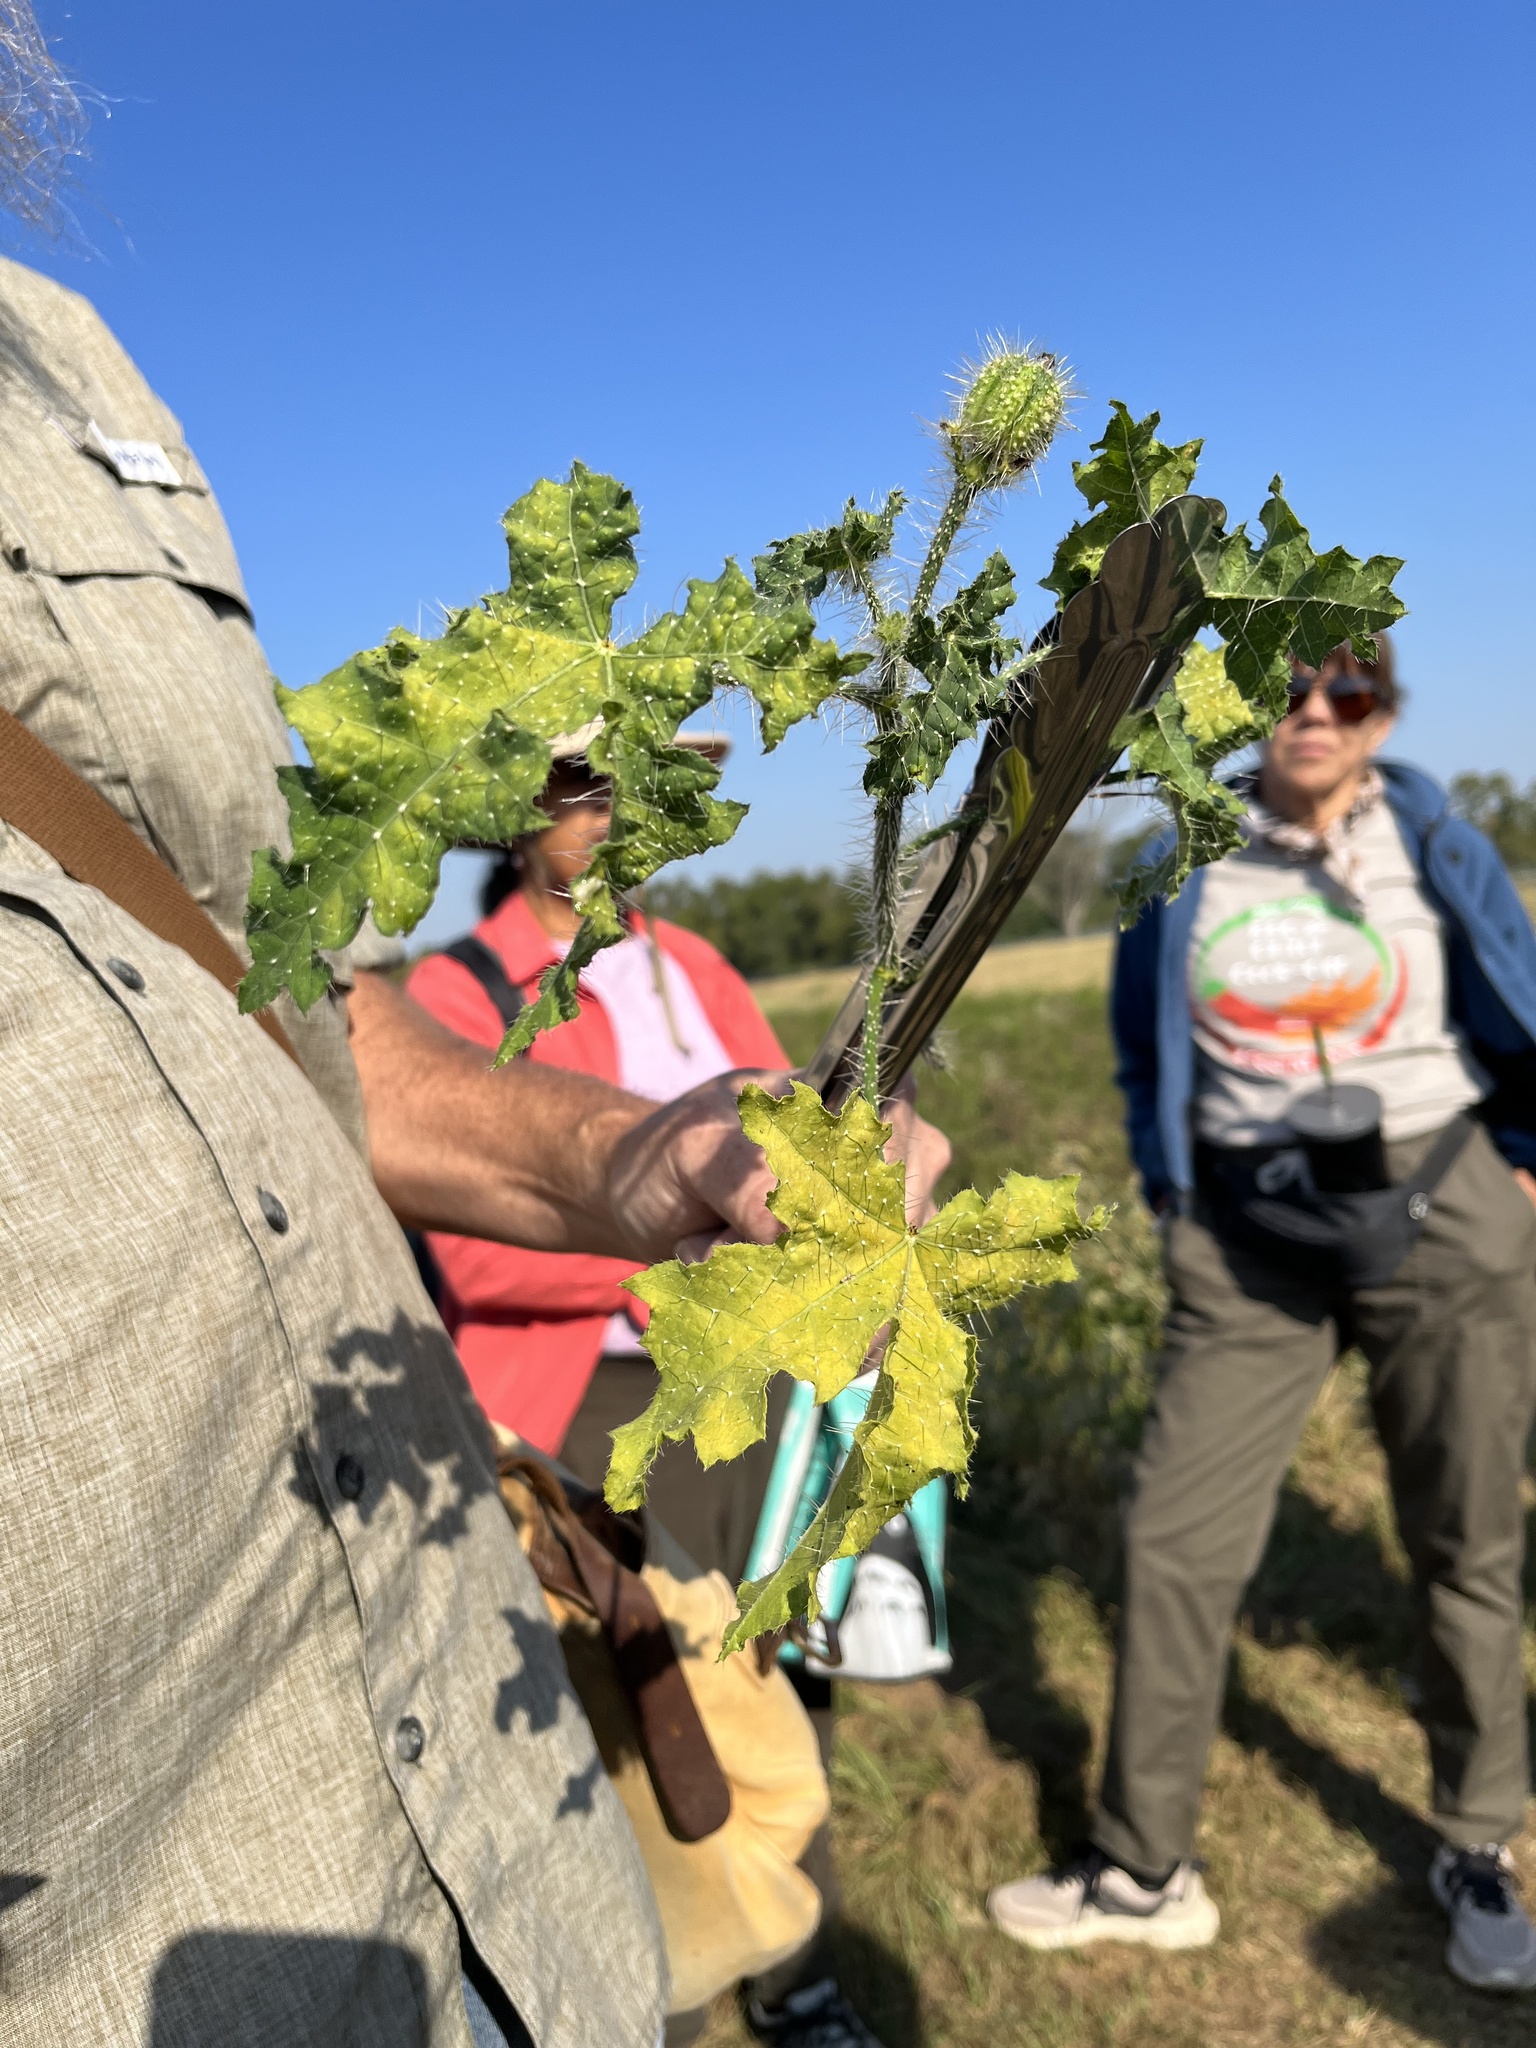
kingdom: Plantae
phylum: Tracheophyta
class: Magnoliopsida
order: Malpighiales
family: Euphorbiaceae
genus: Cnidoscolus
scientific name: Cnidoscolus texanus
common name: Texas bull-nettle
